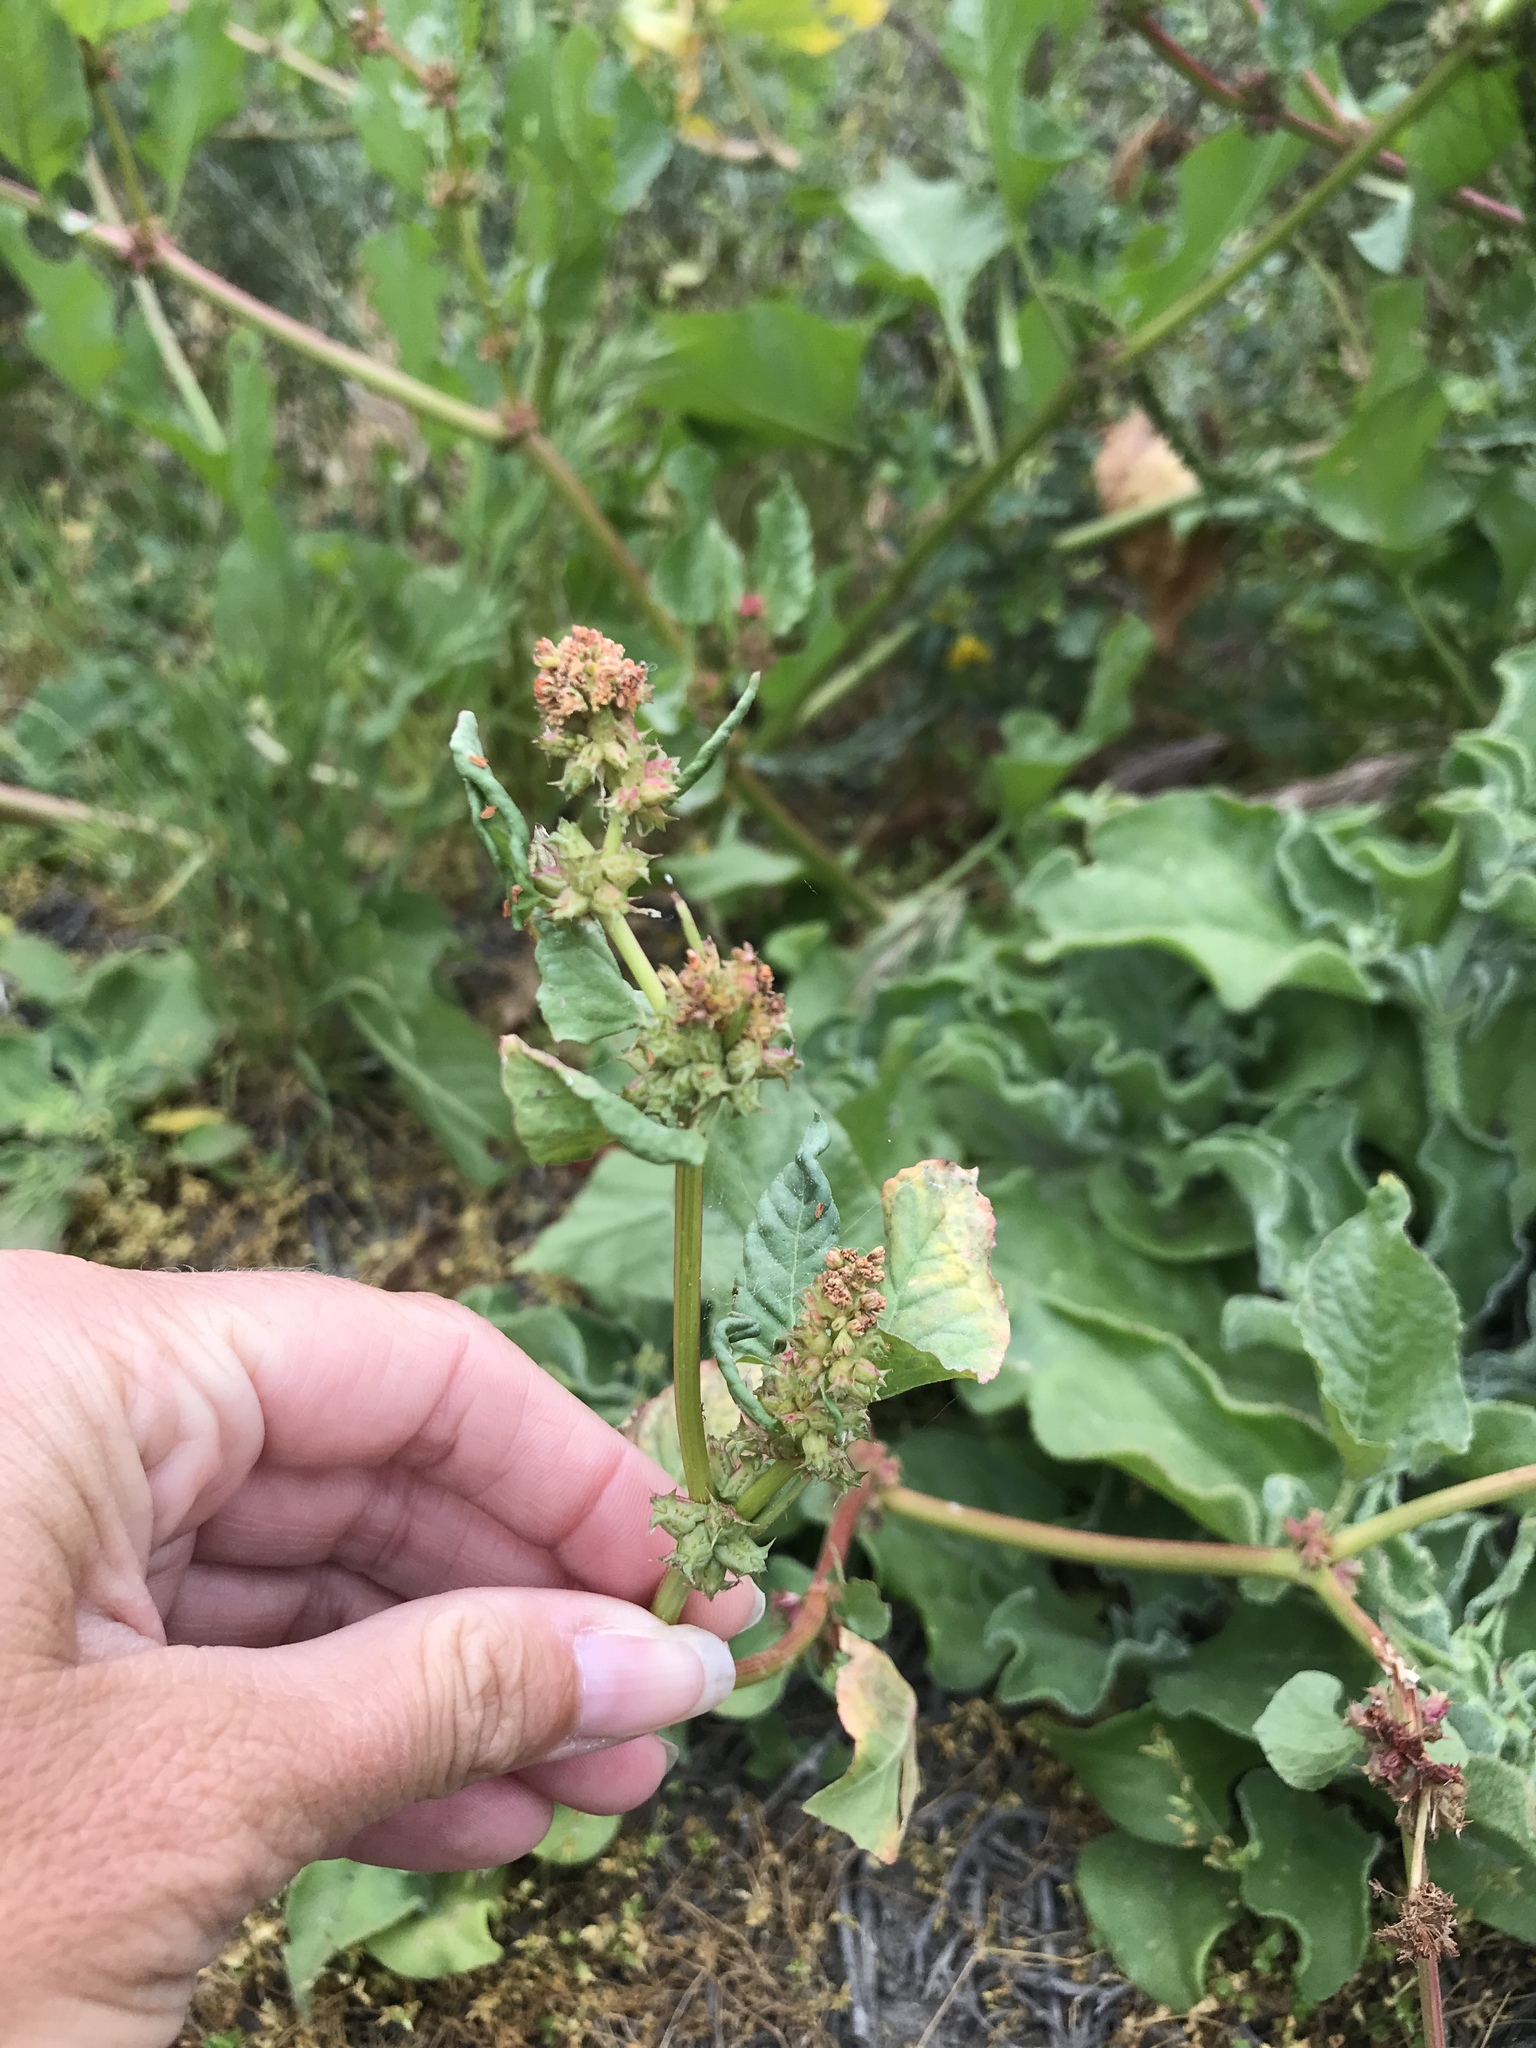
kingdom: Plantae
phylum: Tracheophyta
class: Magnoliopsida
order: Caryophyllales
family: Polygonaceae
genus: Rumex
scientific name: Rumex spinosus
